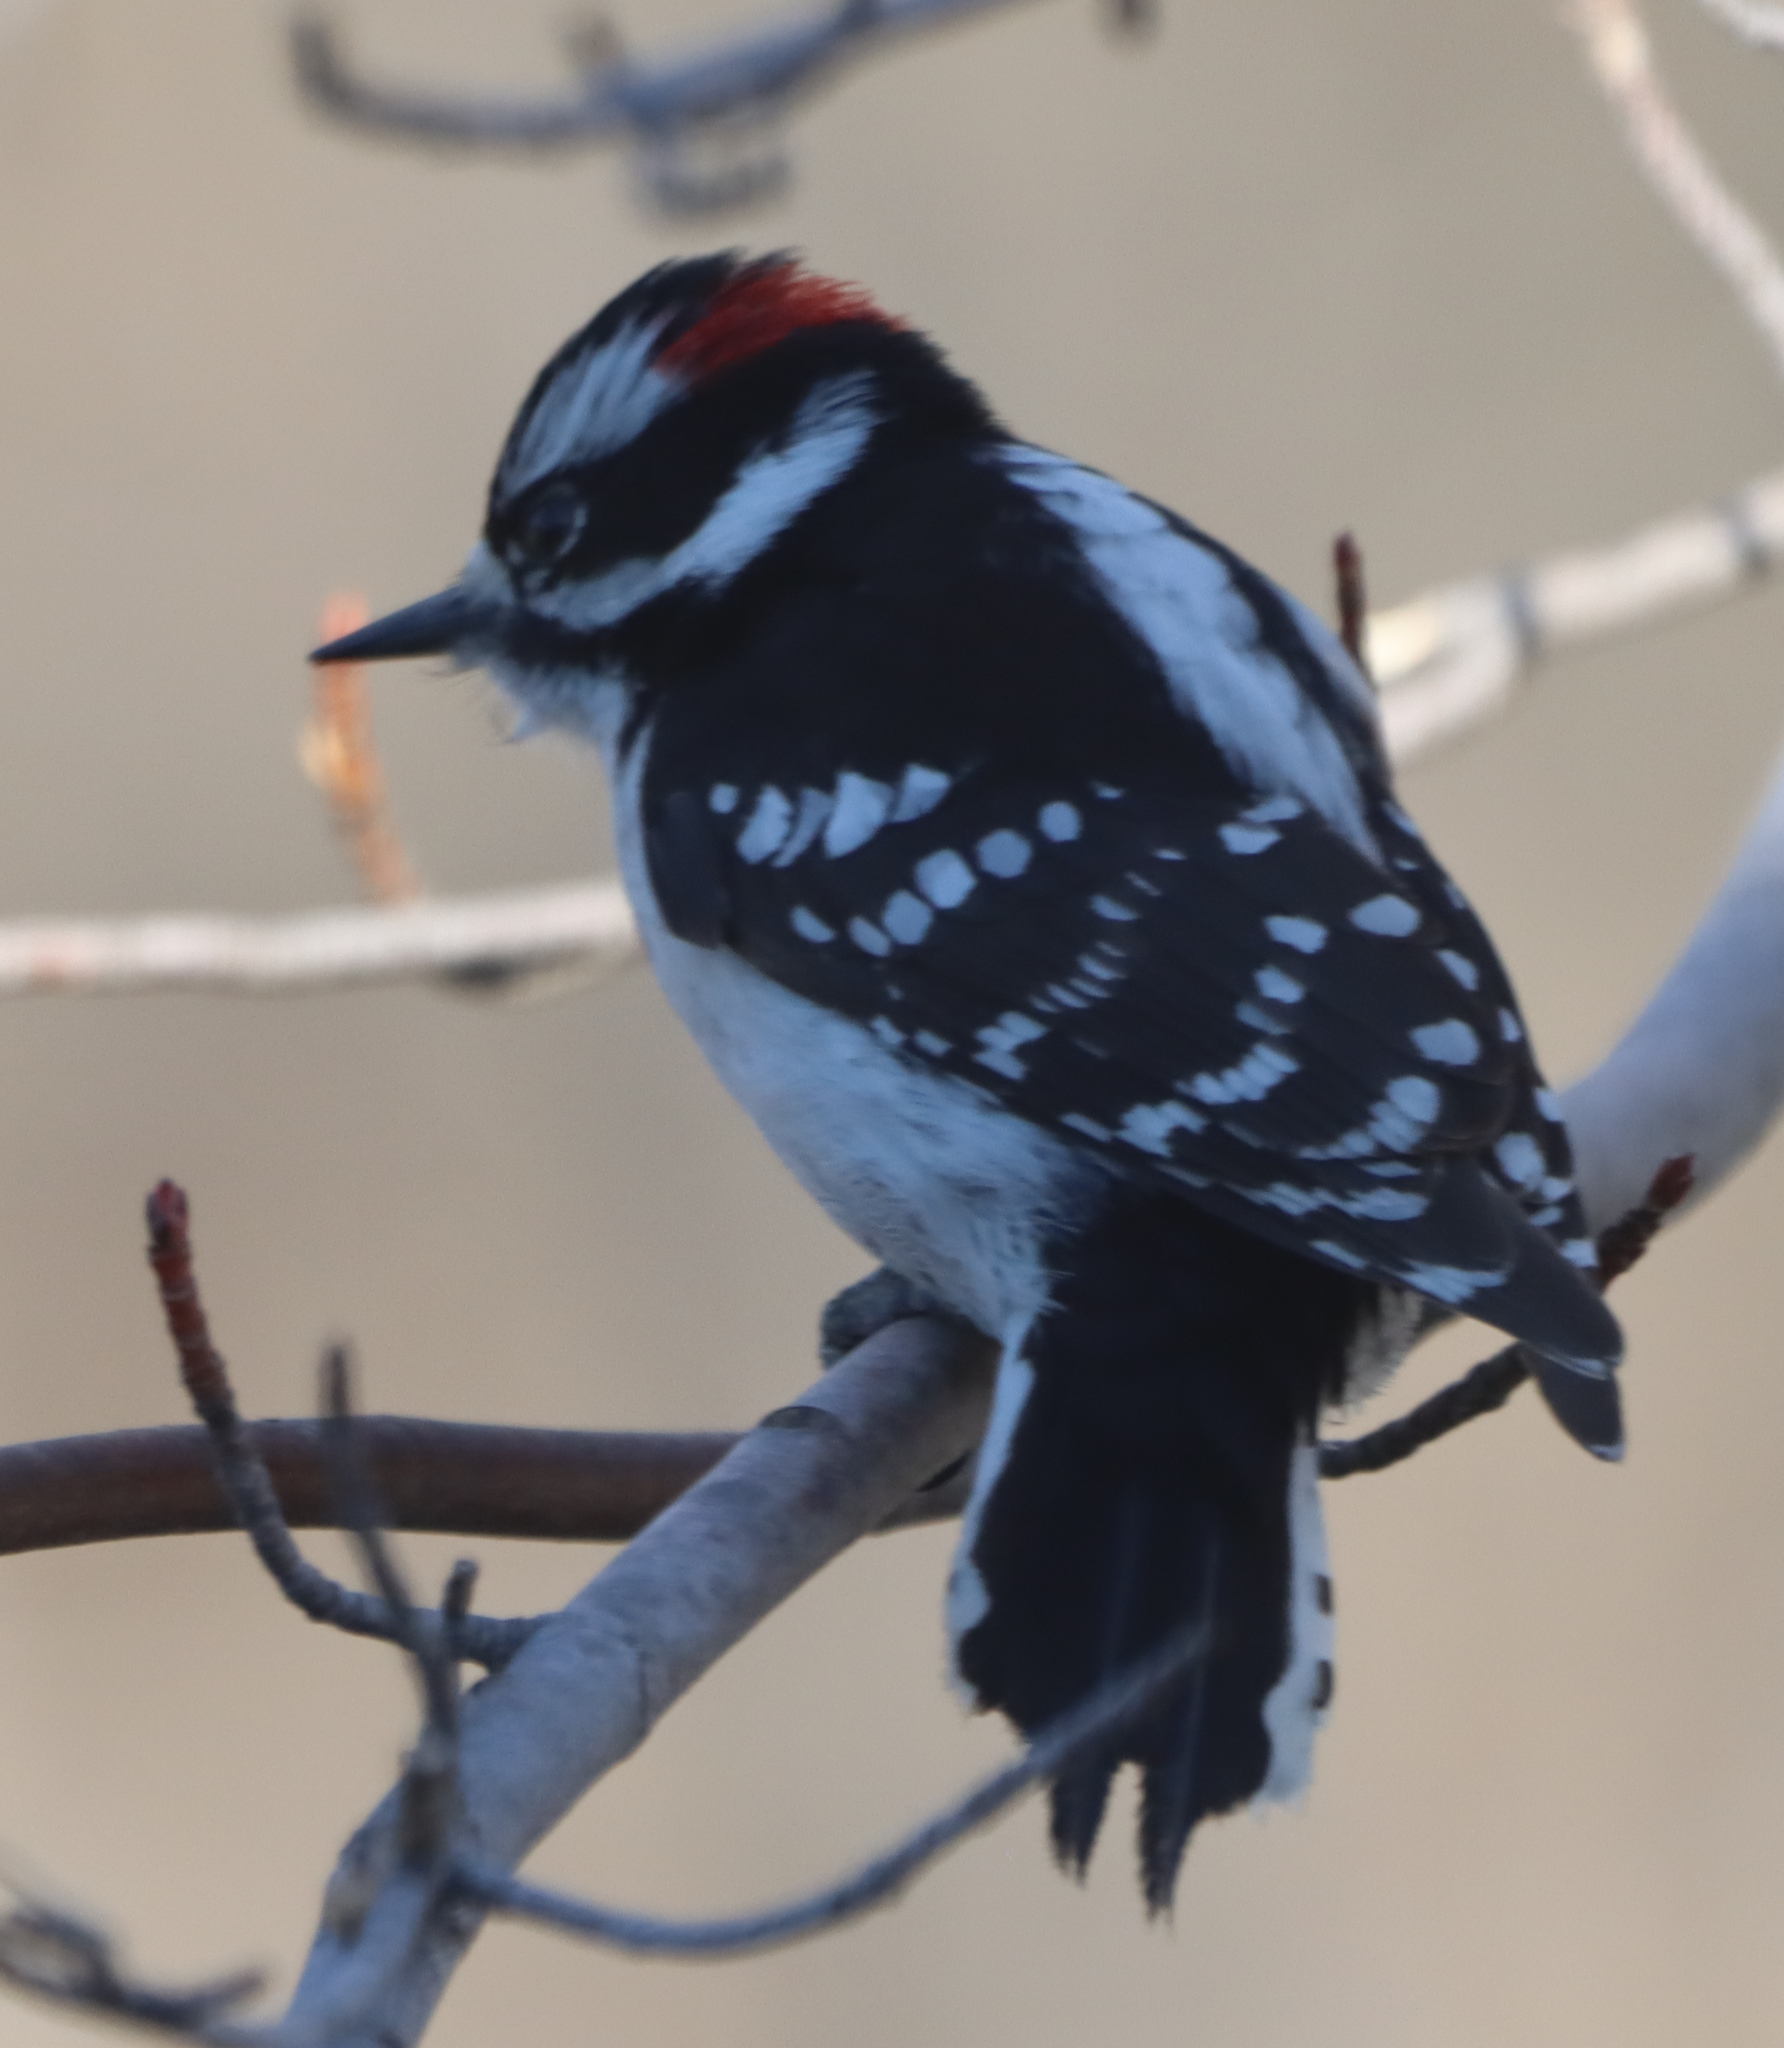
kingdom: Animalia
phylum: Chordata
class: Aves
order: Piciformes
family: Picidae
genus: Dryobates
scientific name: Dryobates pubescens
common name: Downy woodpecker
